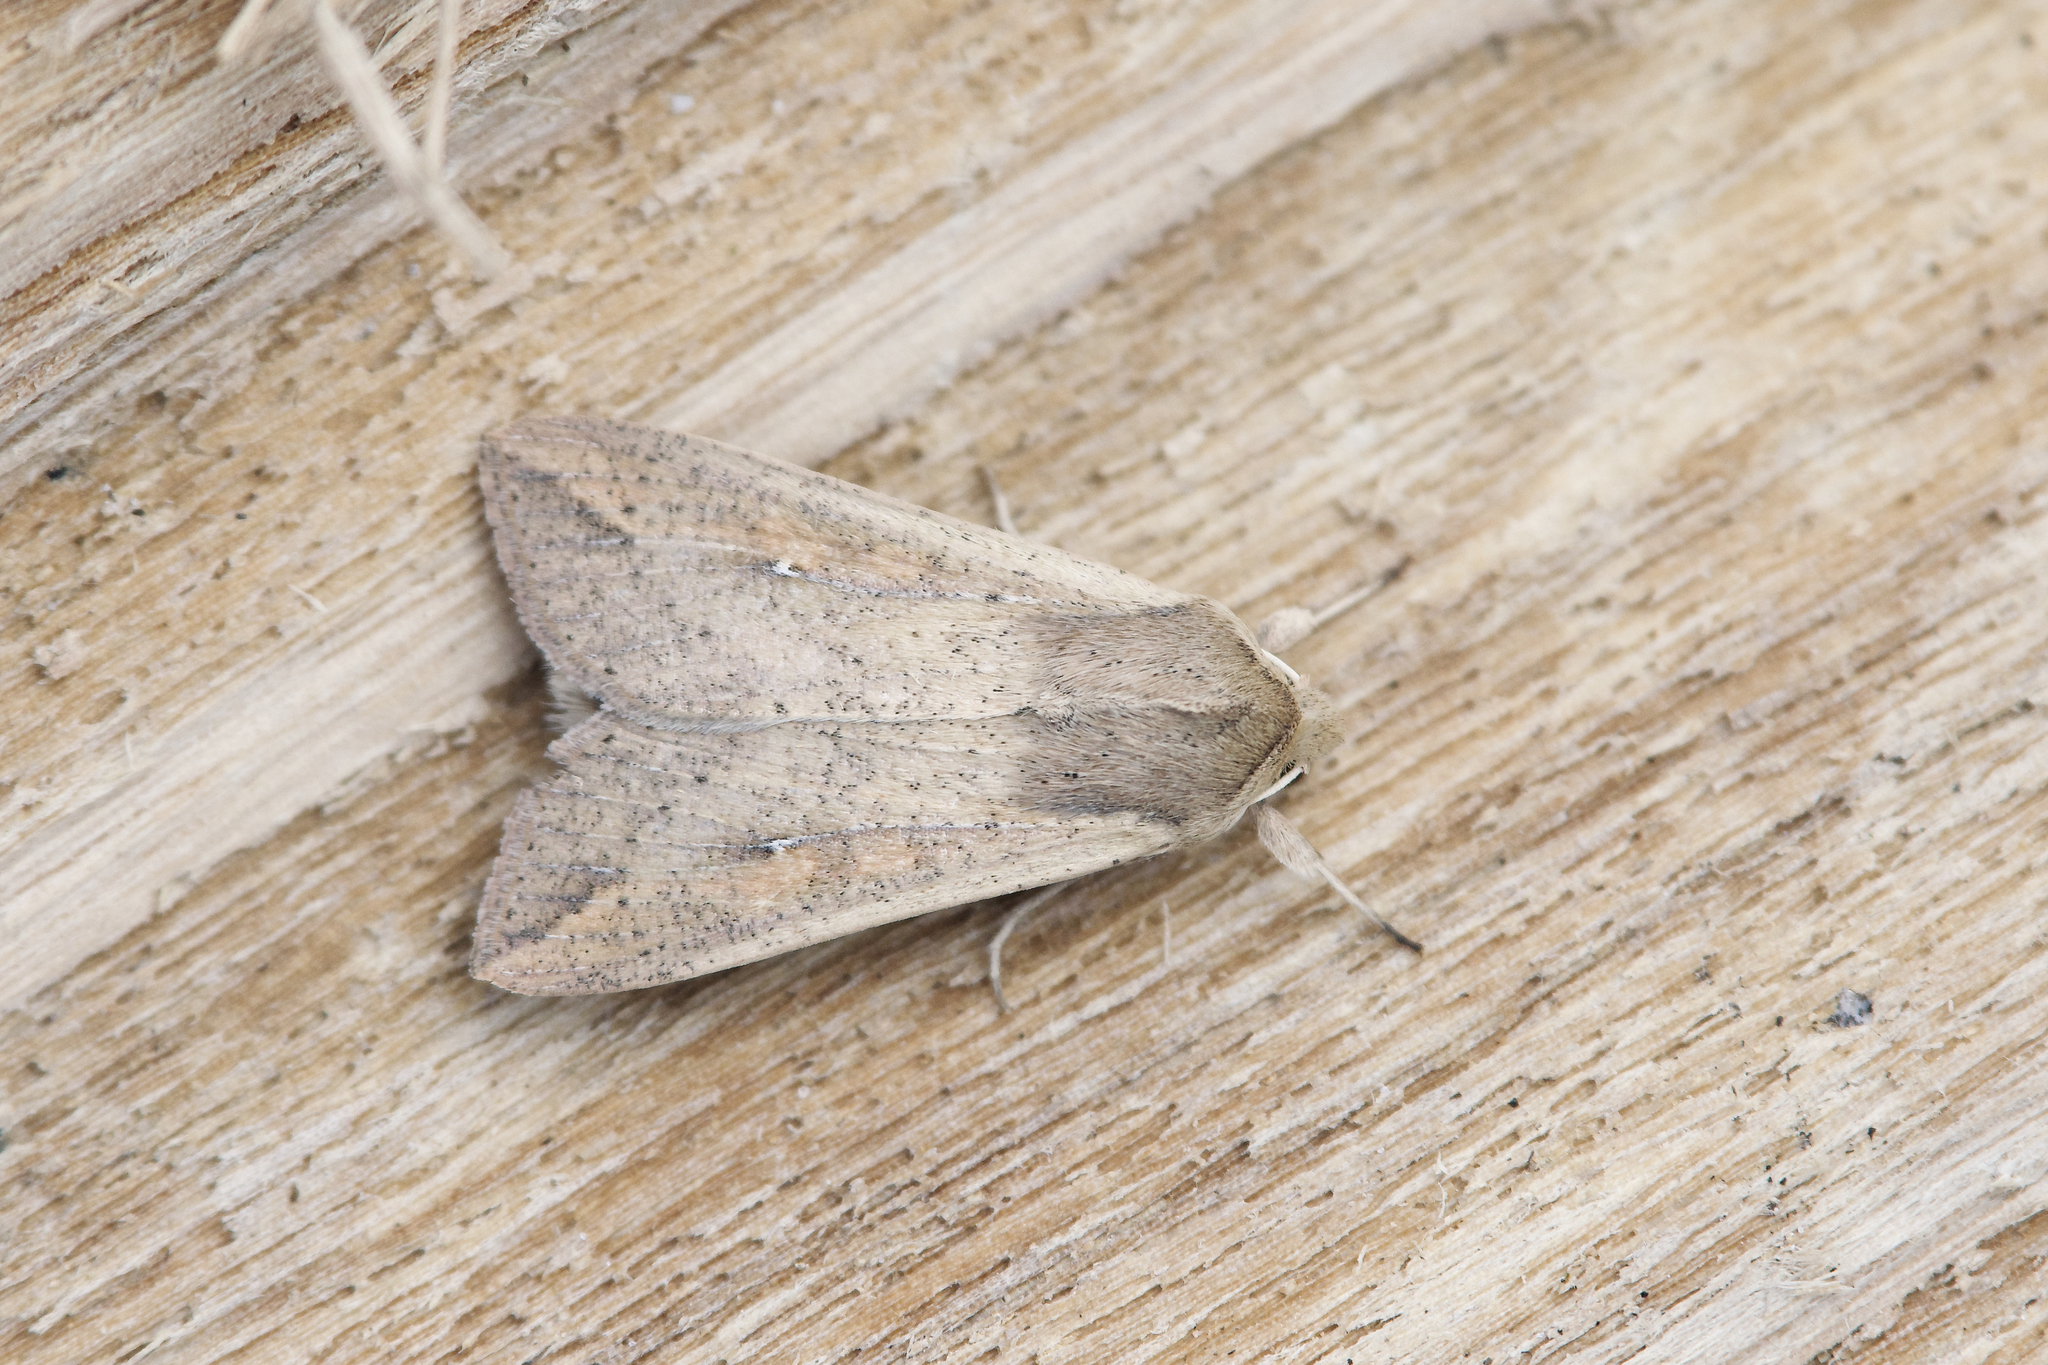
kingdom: Animalia
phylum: Arthropoda
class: Insecta
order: Lepidoptera
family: Noctuidae
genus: Mythimna
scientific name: Mythimna unipuncta
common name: White-speck
